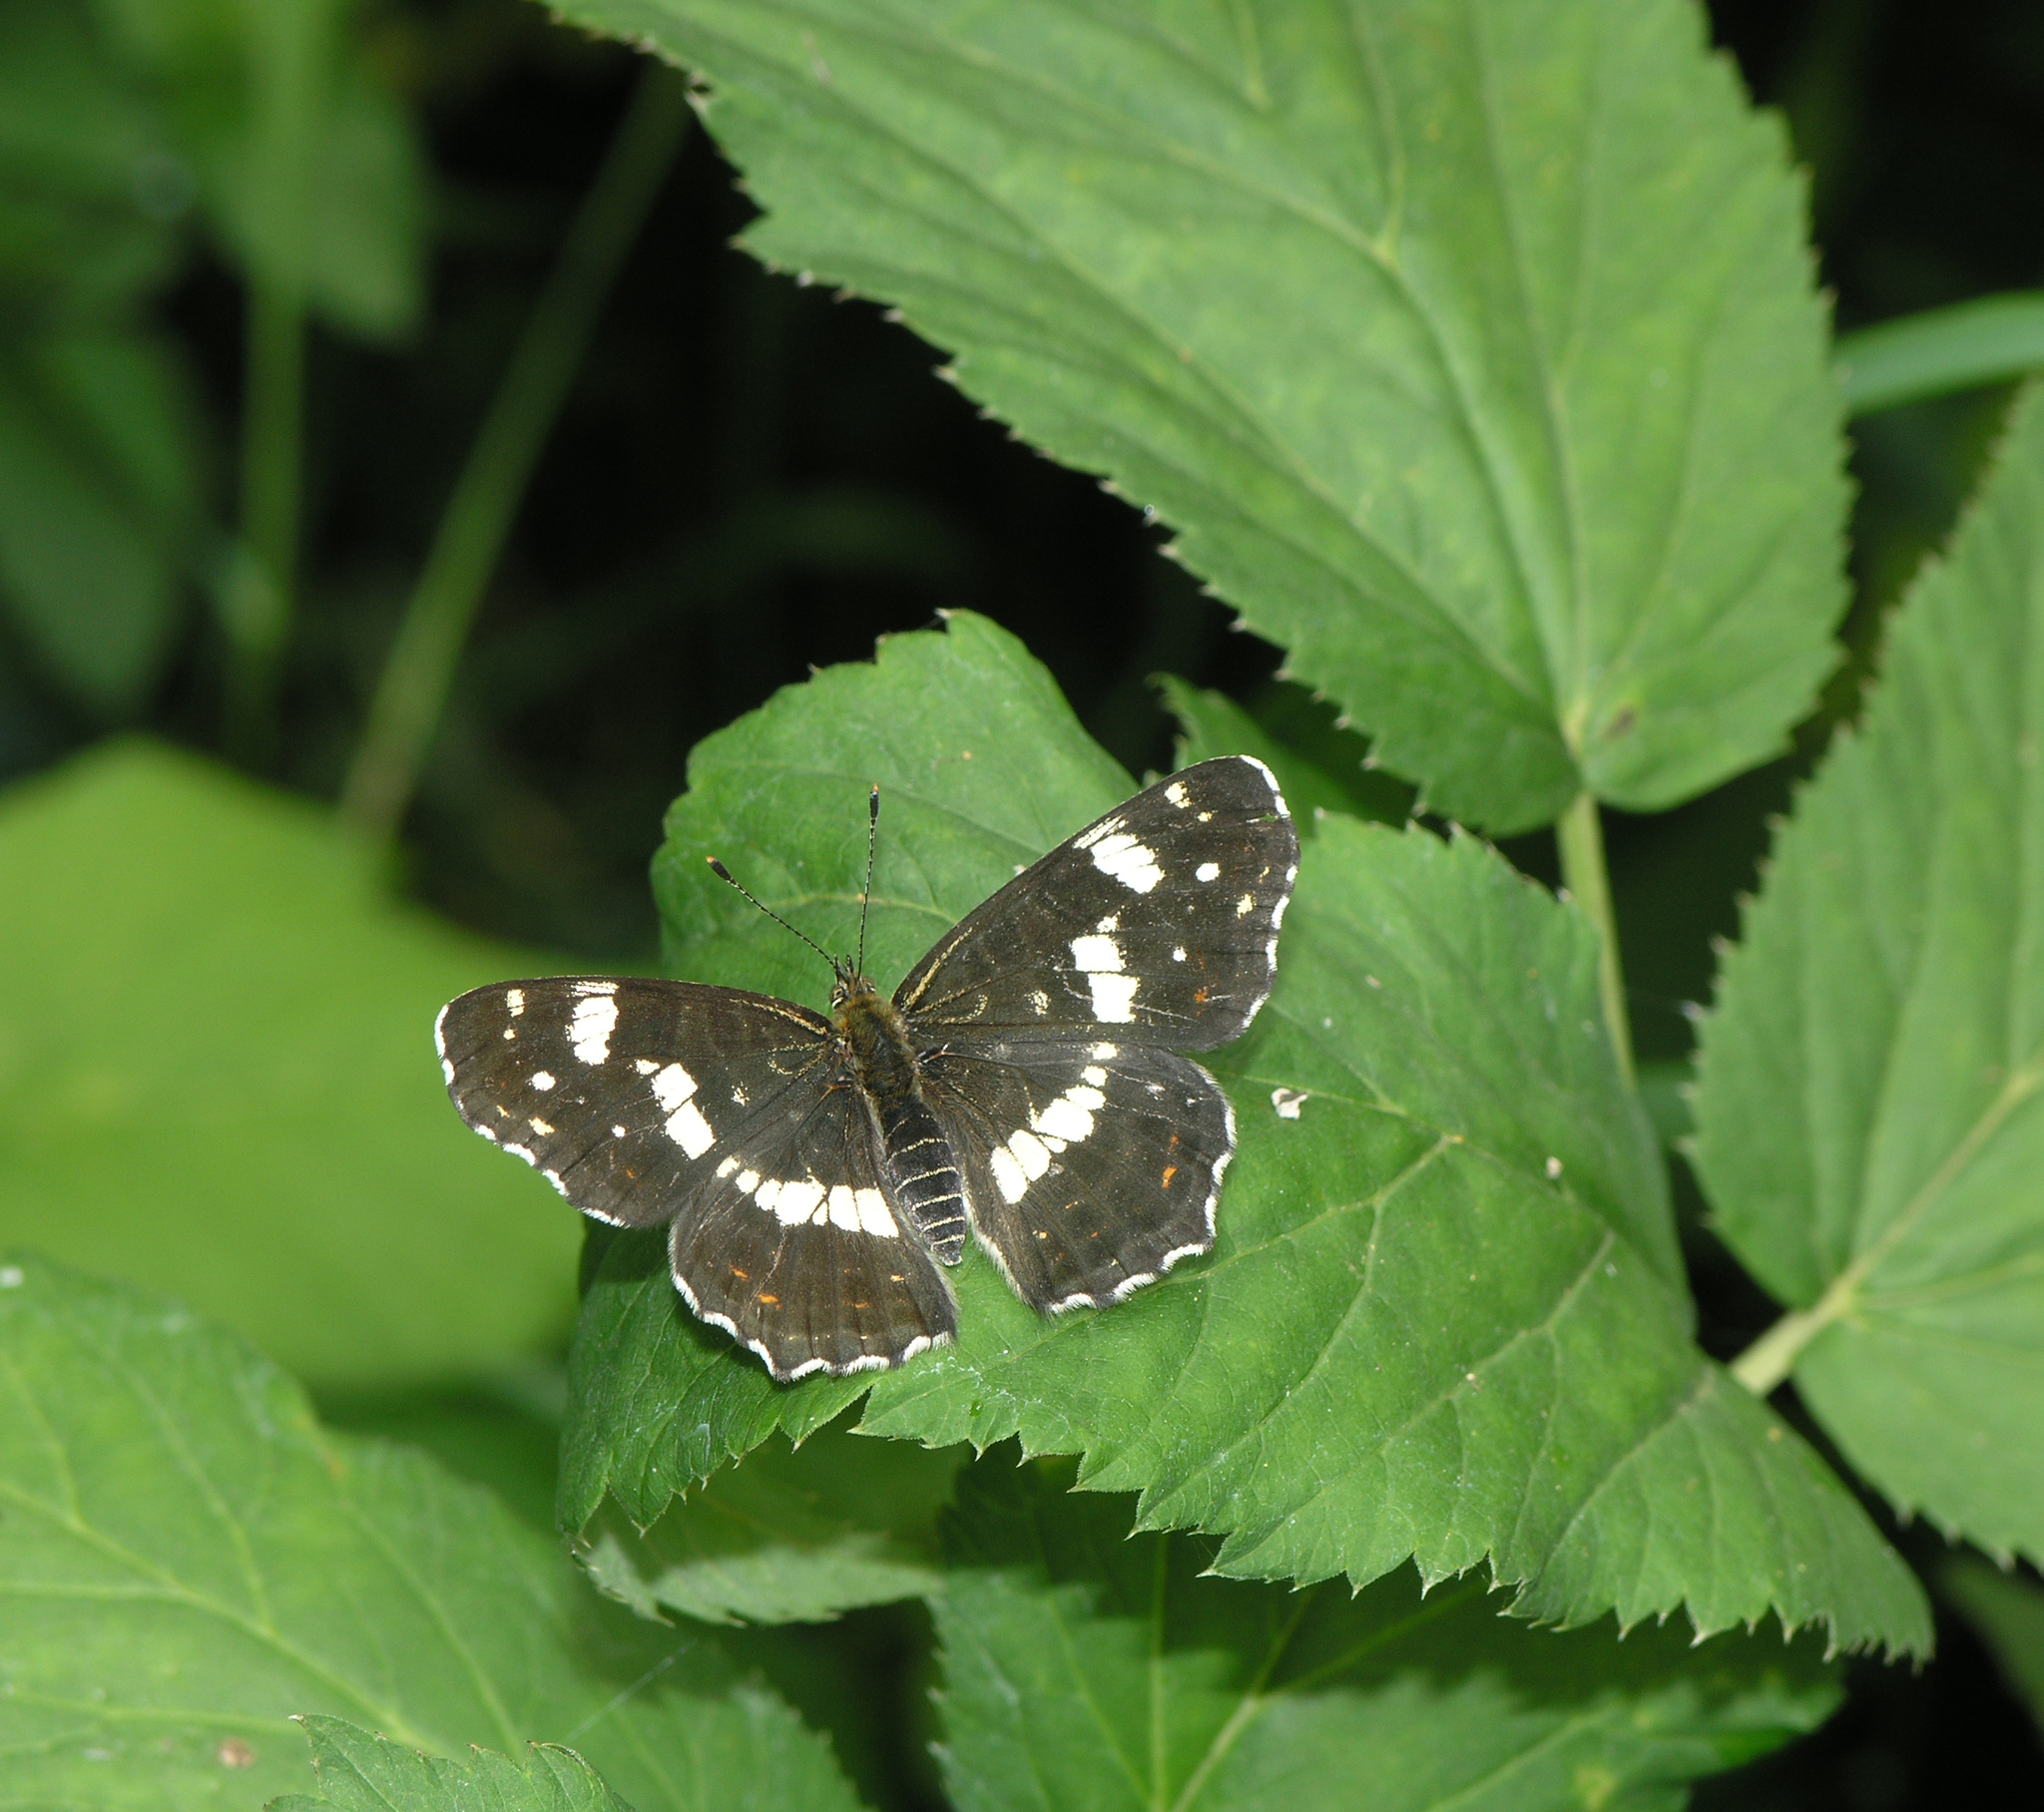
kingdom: Animalia
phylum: Arthropoda
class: Insecta
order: Lepidoptera
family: Nymphalidae
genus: Araschnia
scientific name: Araschnia levana
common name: Map butterfly
